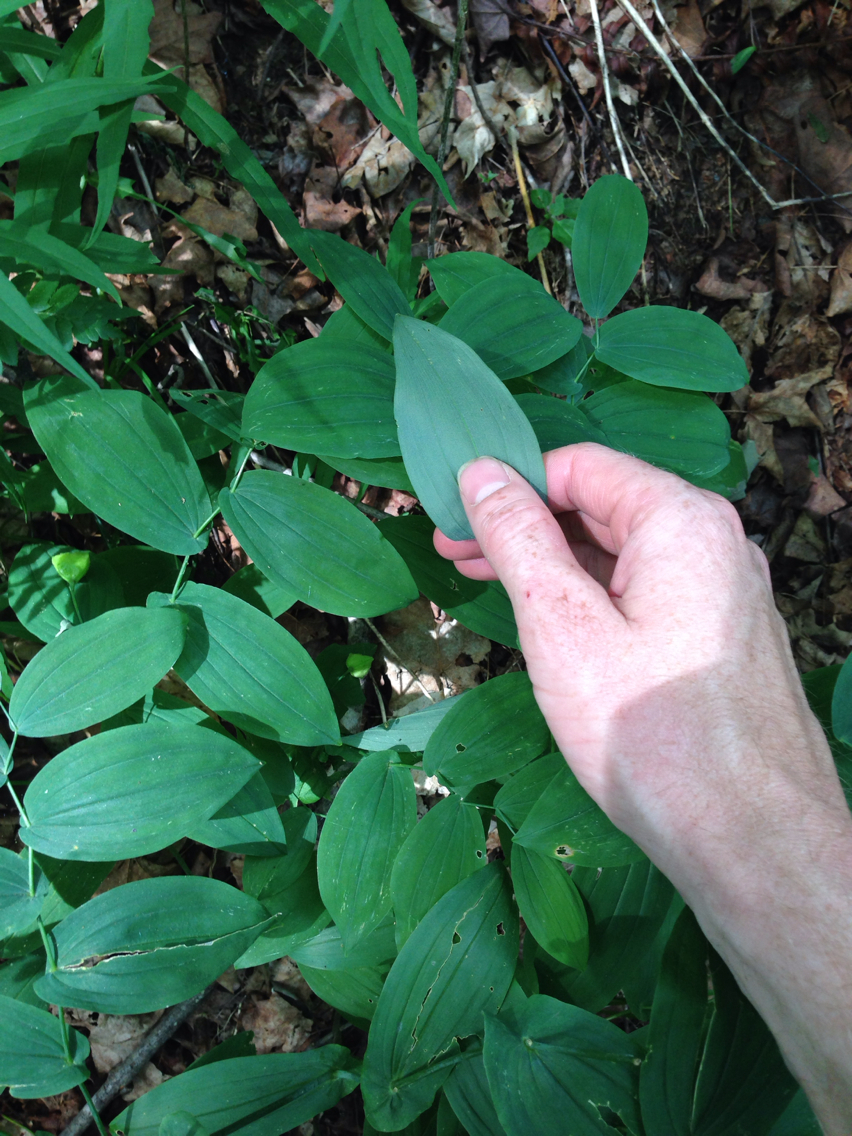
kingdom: Plantae
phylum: Tracheophyta
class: Liliopsida
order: Liliales
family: Colchicaceae
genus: Uvularia
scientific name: Uvularia grandiflora
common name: Bellwort
